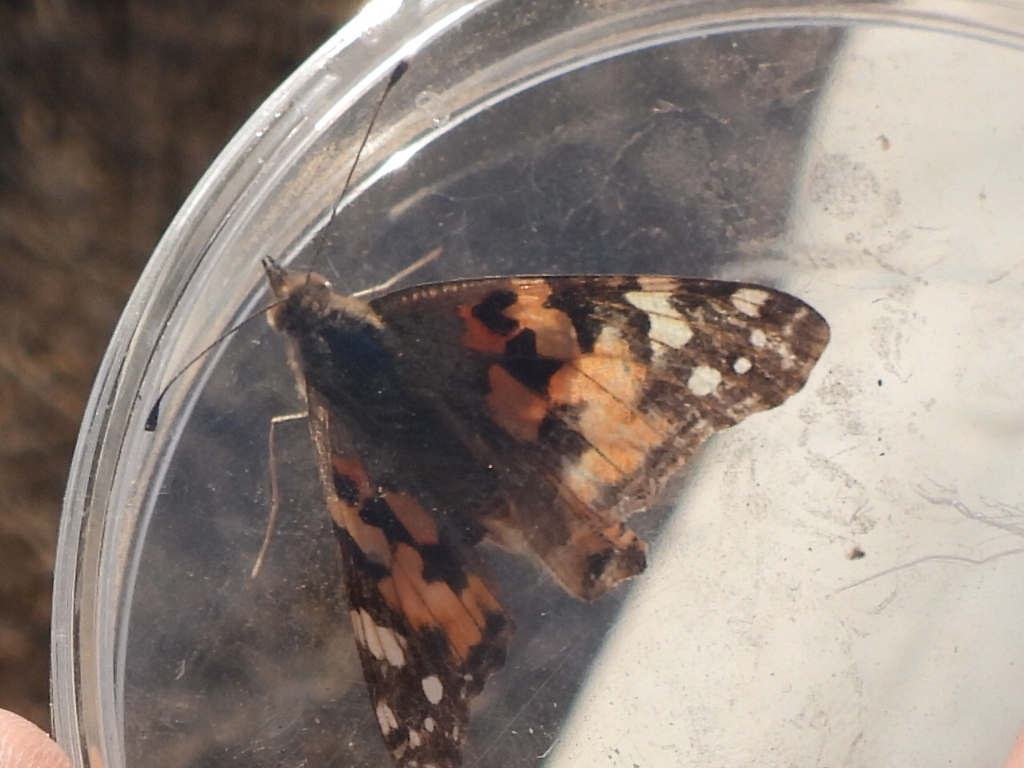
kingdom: Animalia
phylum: Arthropoda
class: Insecta
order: Lepidoptera
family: Nymphalidae
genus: Vanessa
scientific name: Vanessa cardui
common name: Painted lady
